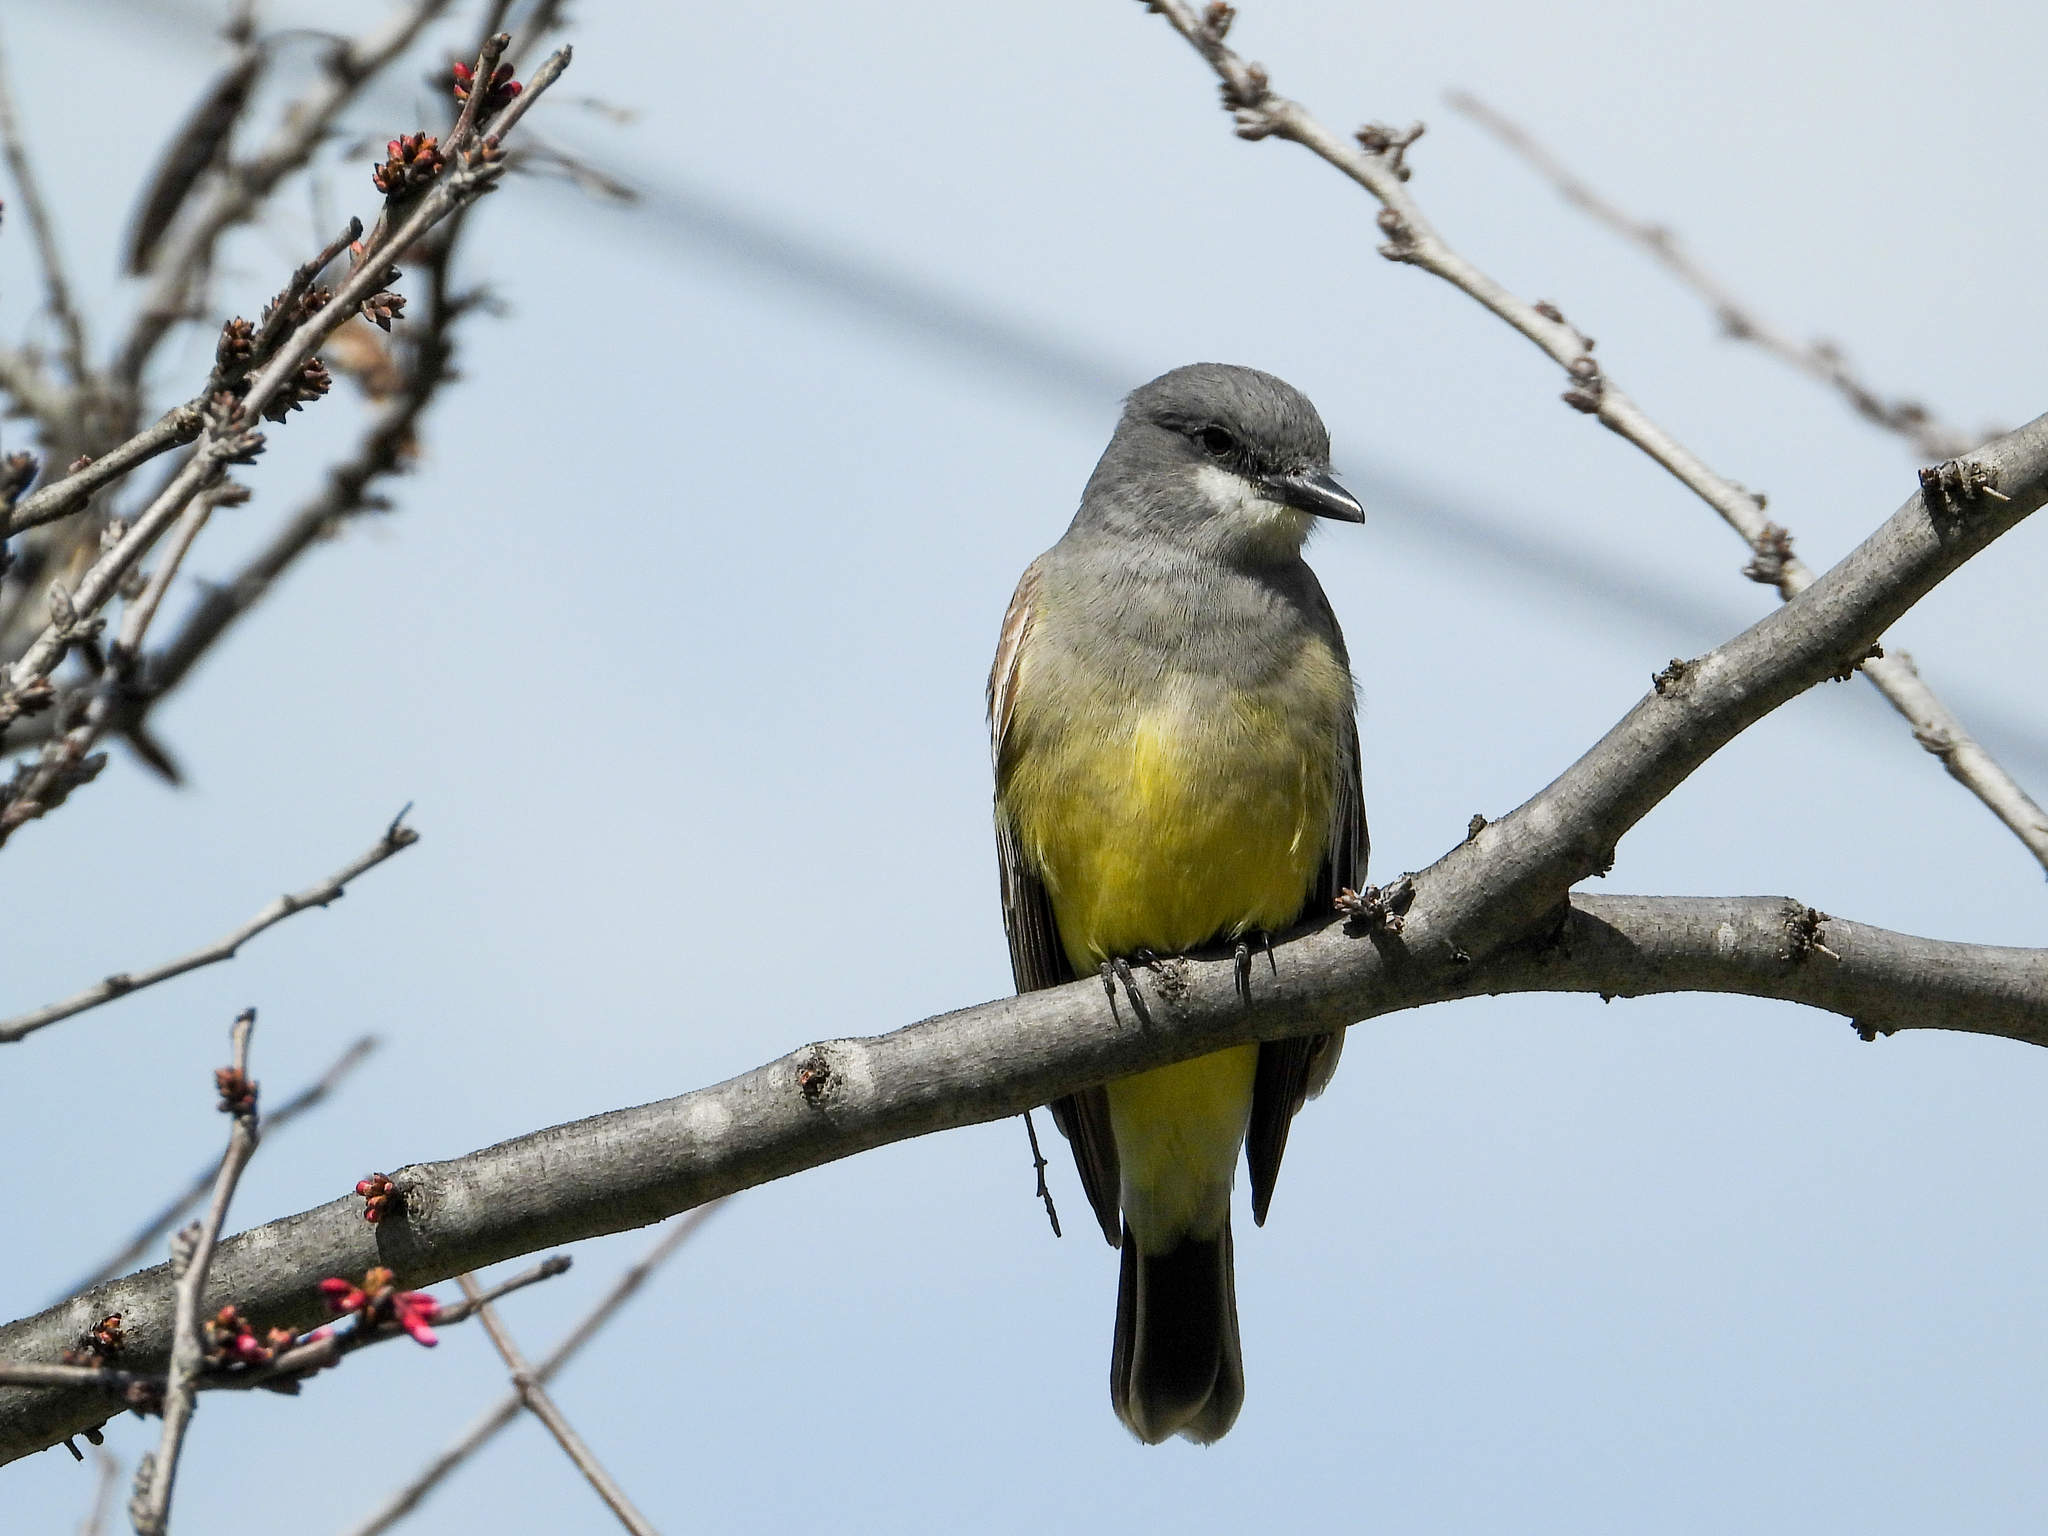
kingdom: Animalia
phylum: Chordata
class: Aves
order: Passeriformes
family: Tyrannidae
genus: Tyrannus
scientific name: Tyrannus vociferans
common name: Cassin's kingbird
